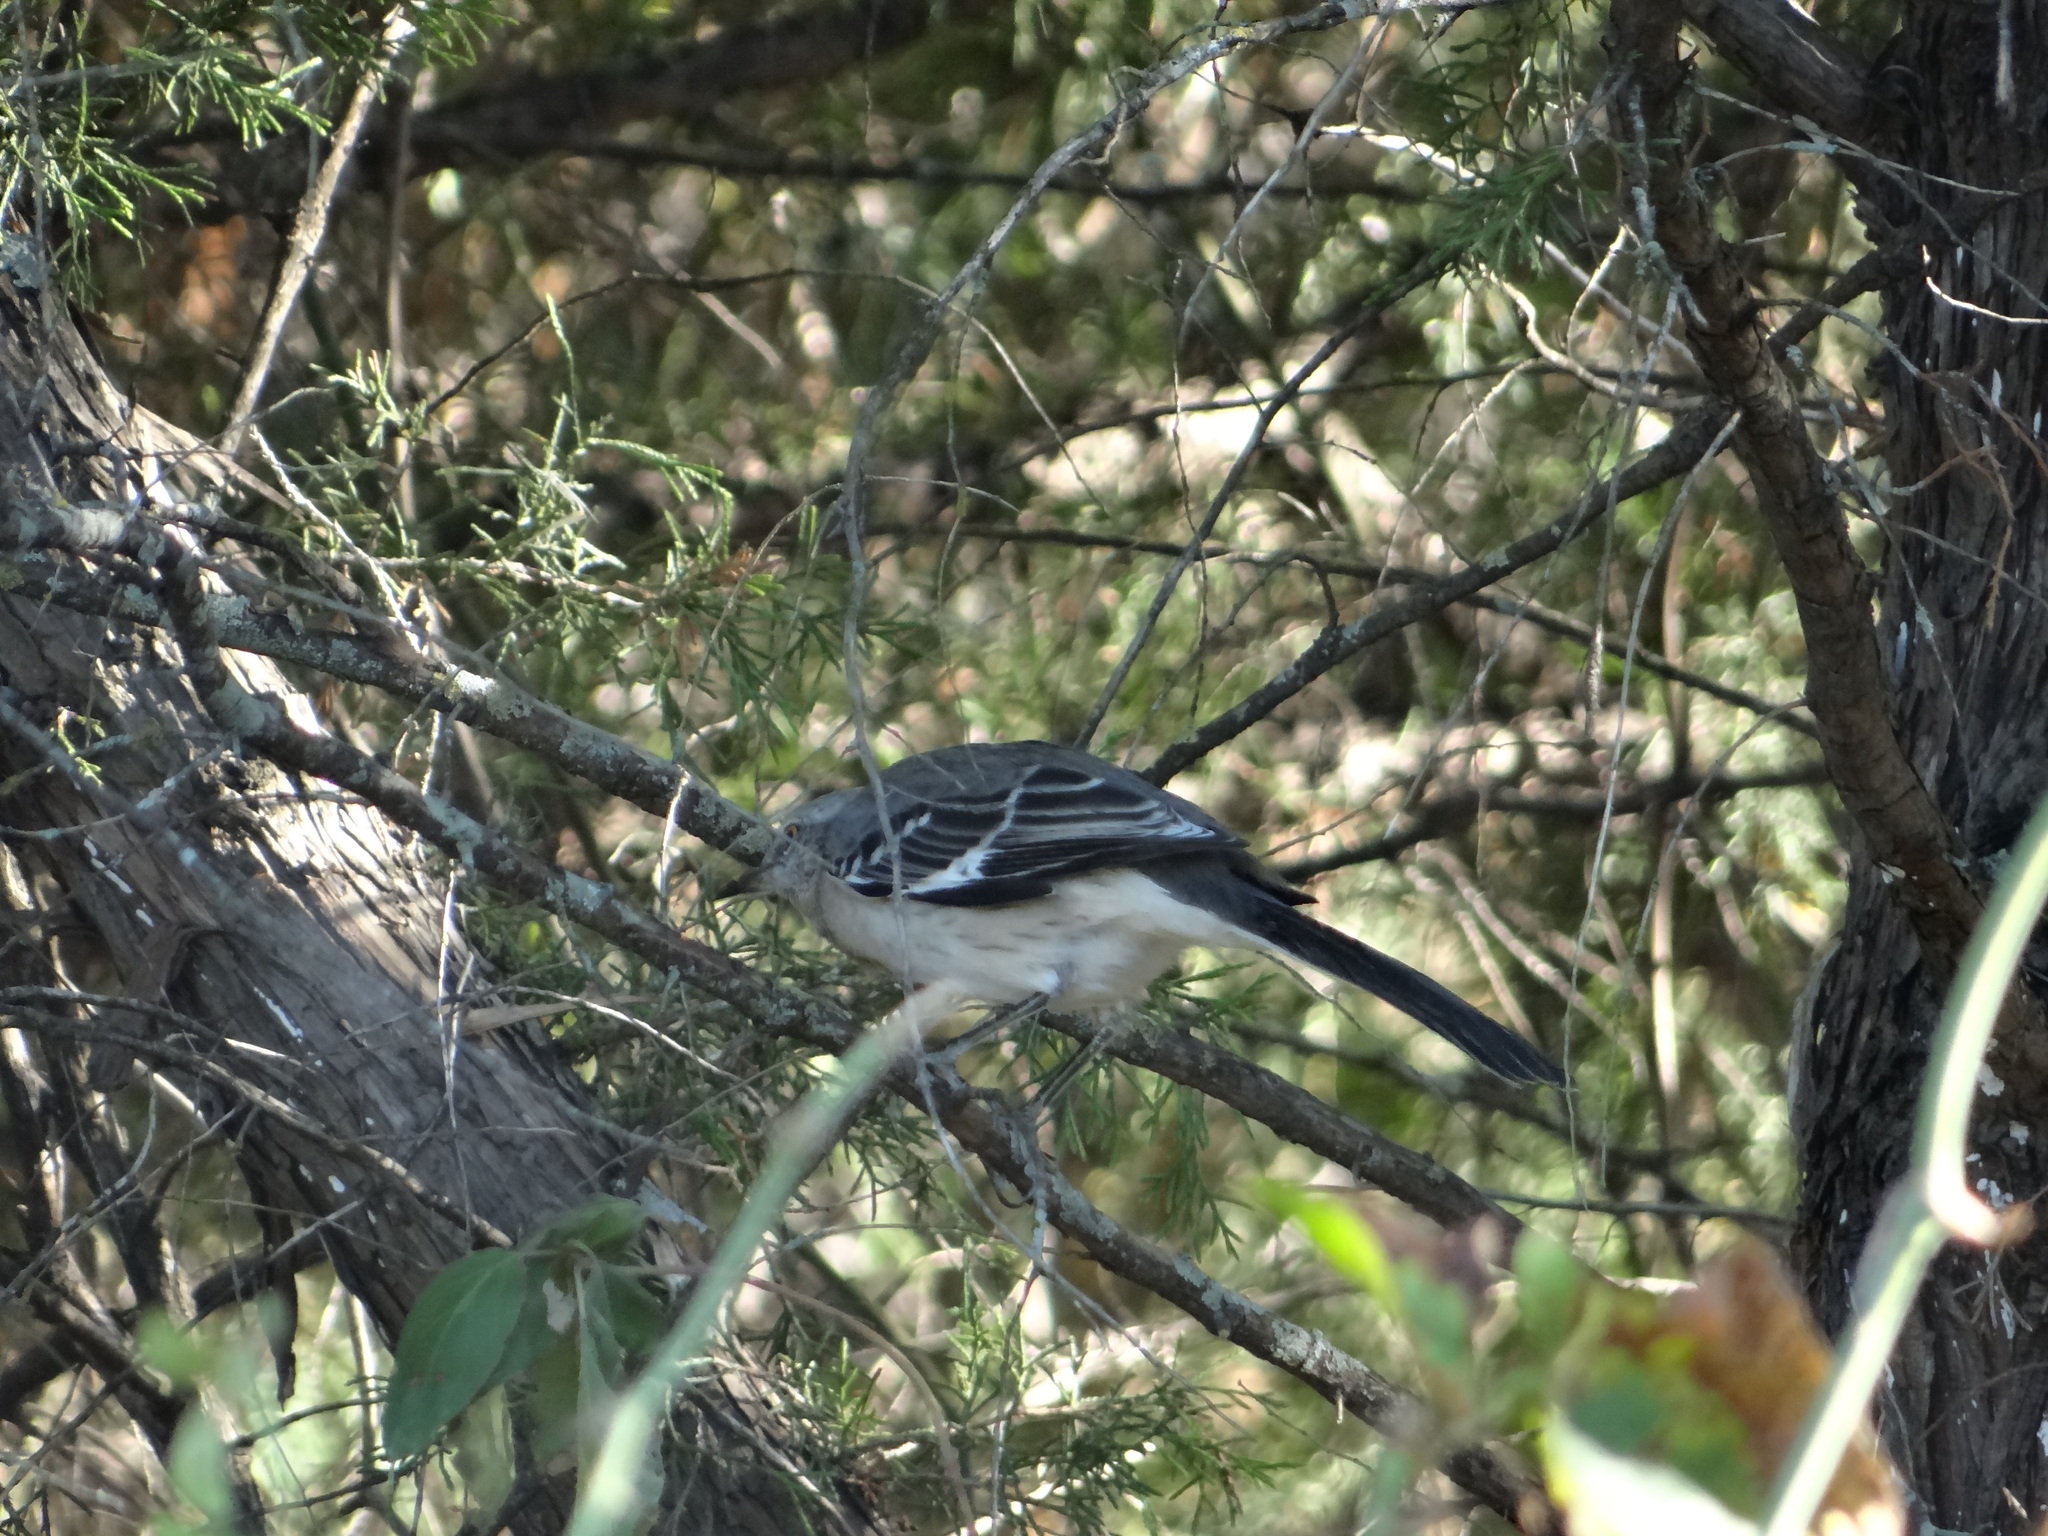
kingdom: Animalia
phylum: Chordata
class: Aves
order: Passeriformes
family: Mimidae
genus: Mimus
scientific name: Mimus polyglottos
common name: Northern mockingbird
